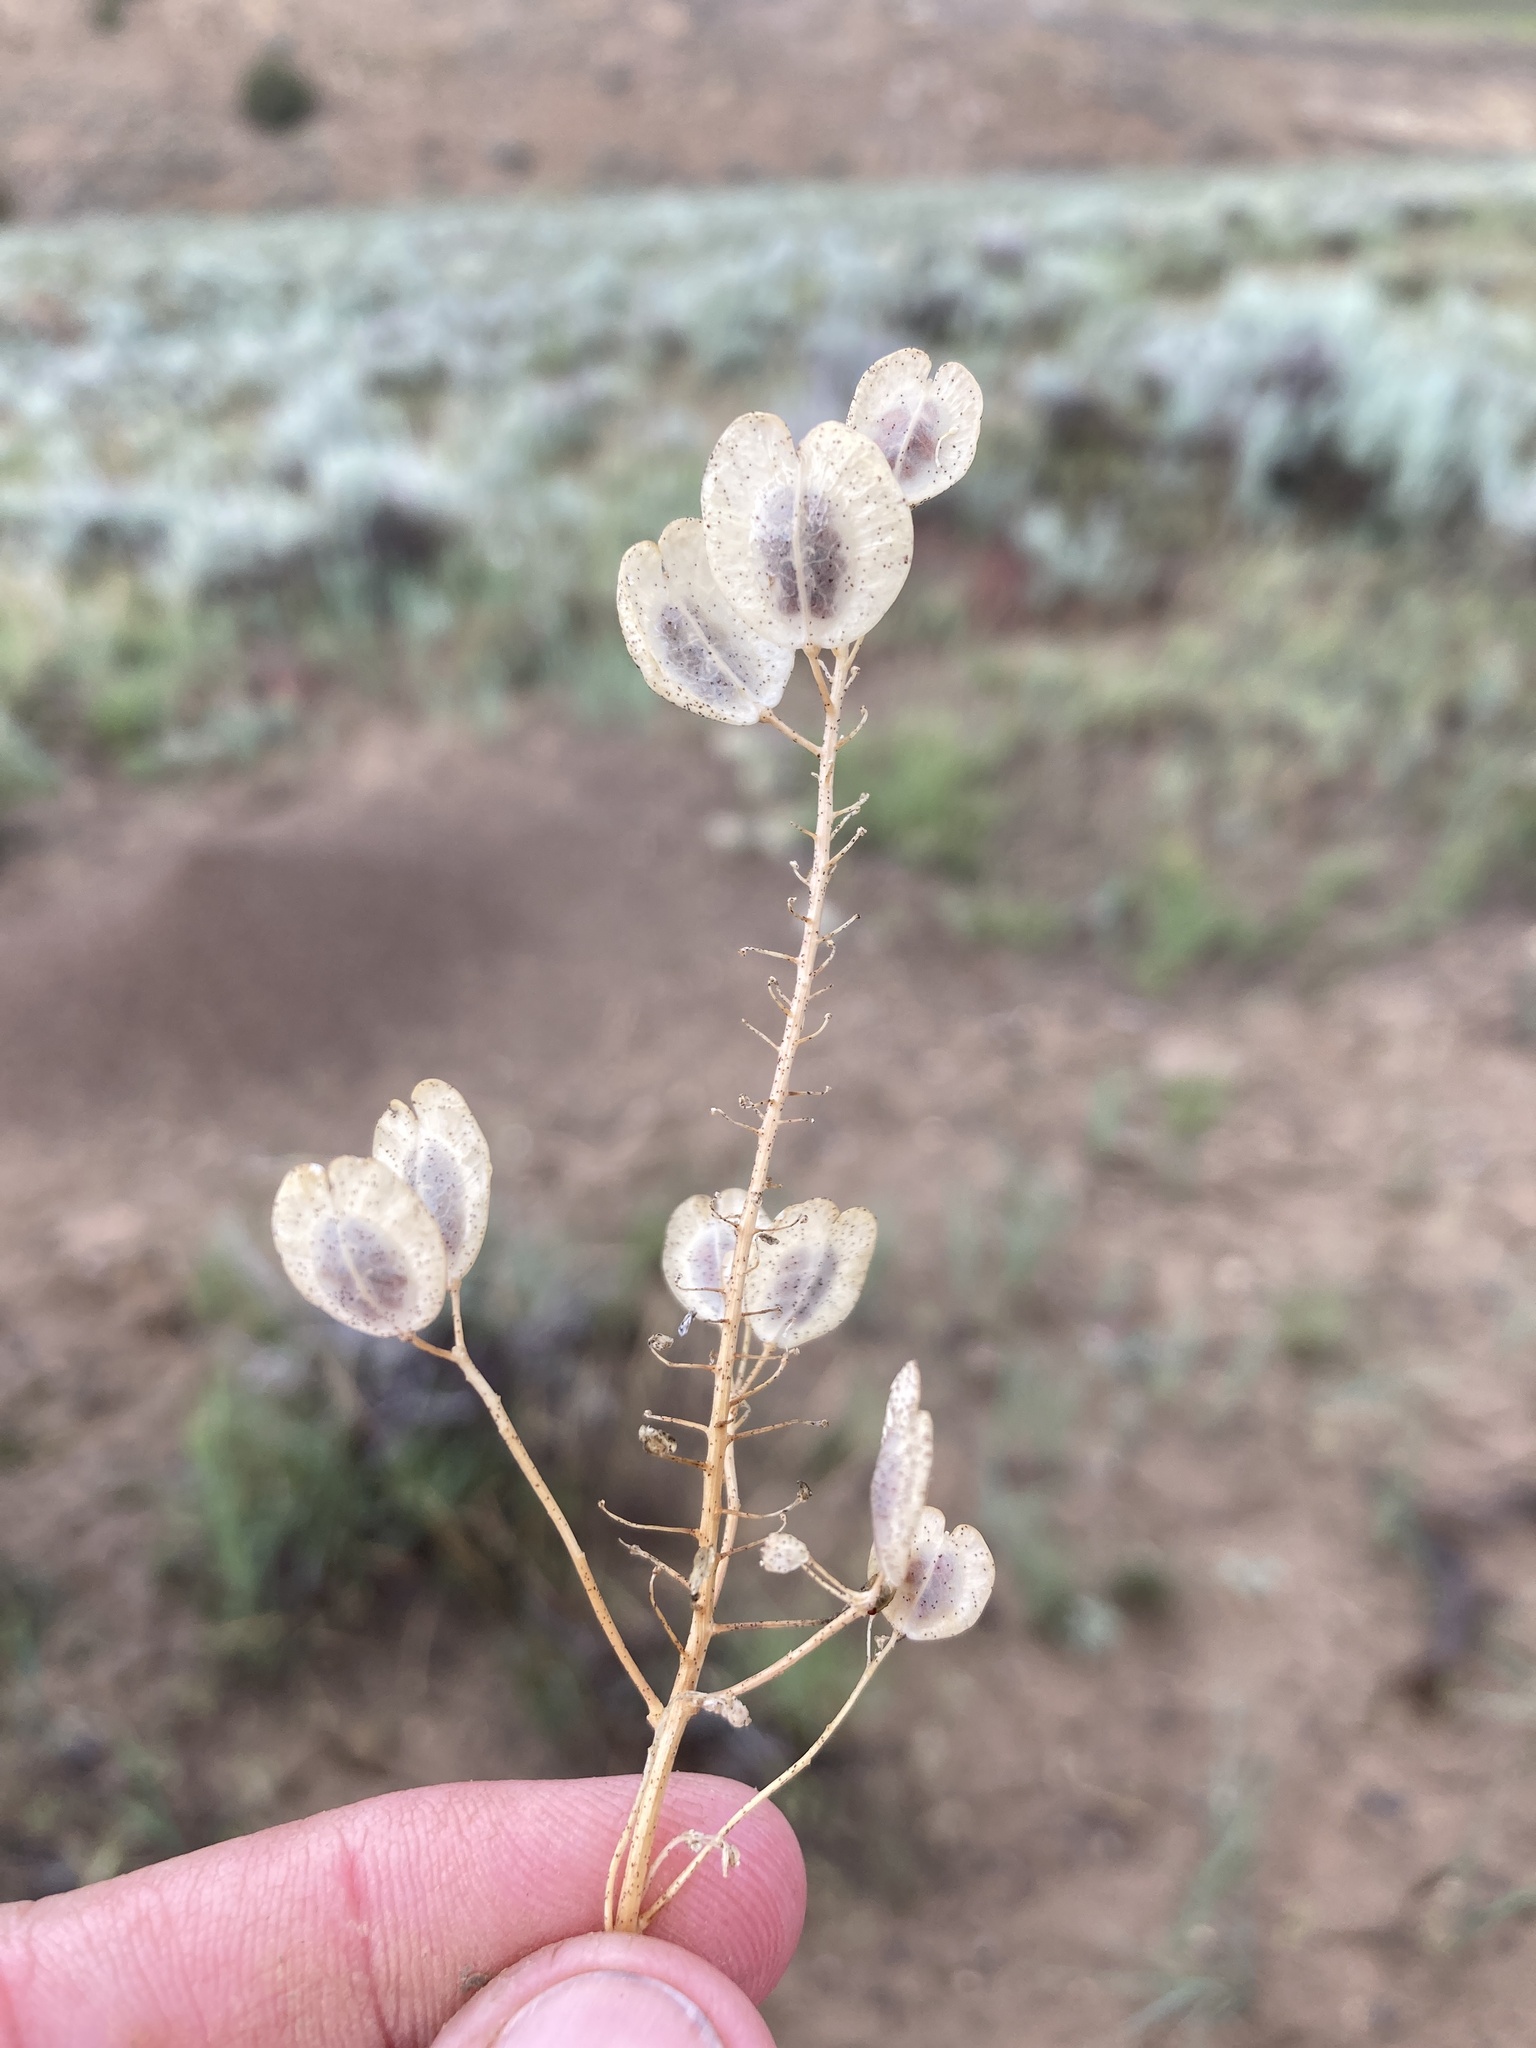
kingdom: Plantae
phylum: Tracheophyta
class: Magnoliopsida
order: Brassicales
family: Brassicaceae
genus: Thlaspi
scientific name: Thlaspi arvense
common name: Field pennycress
